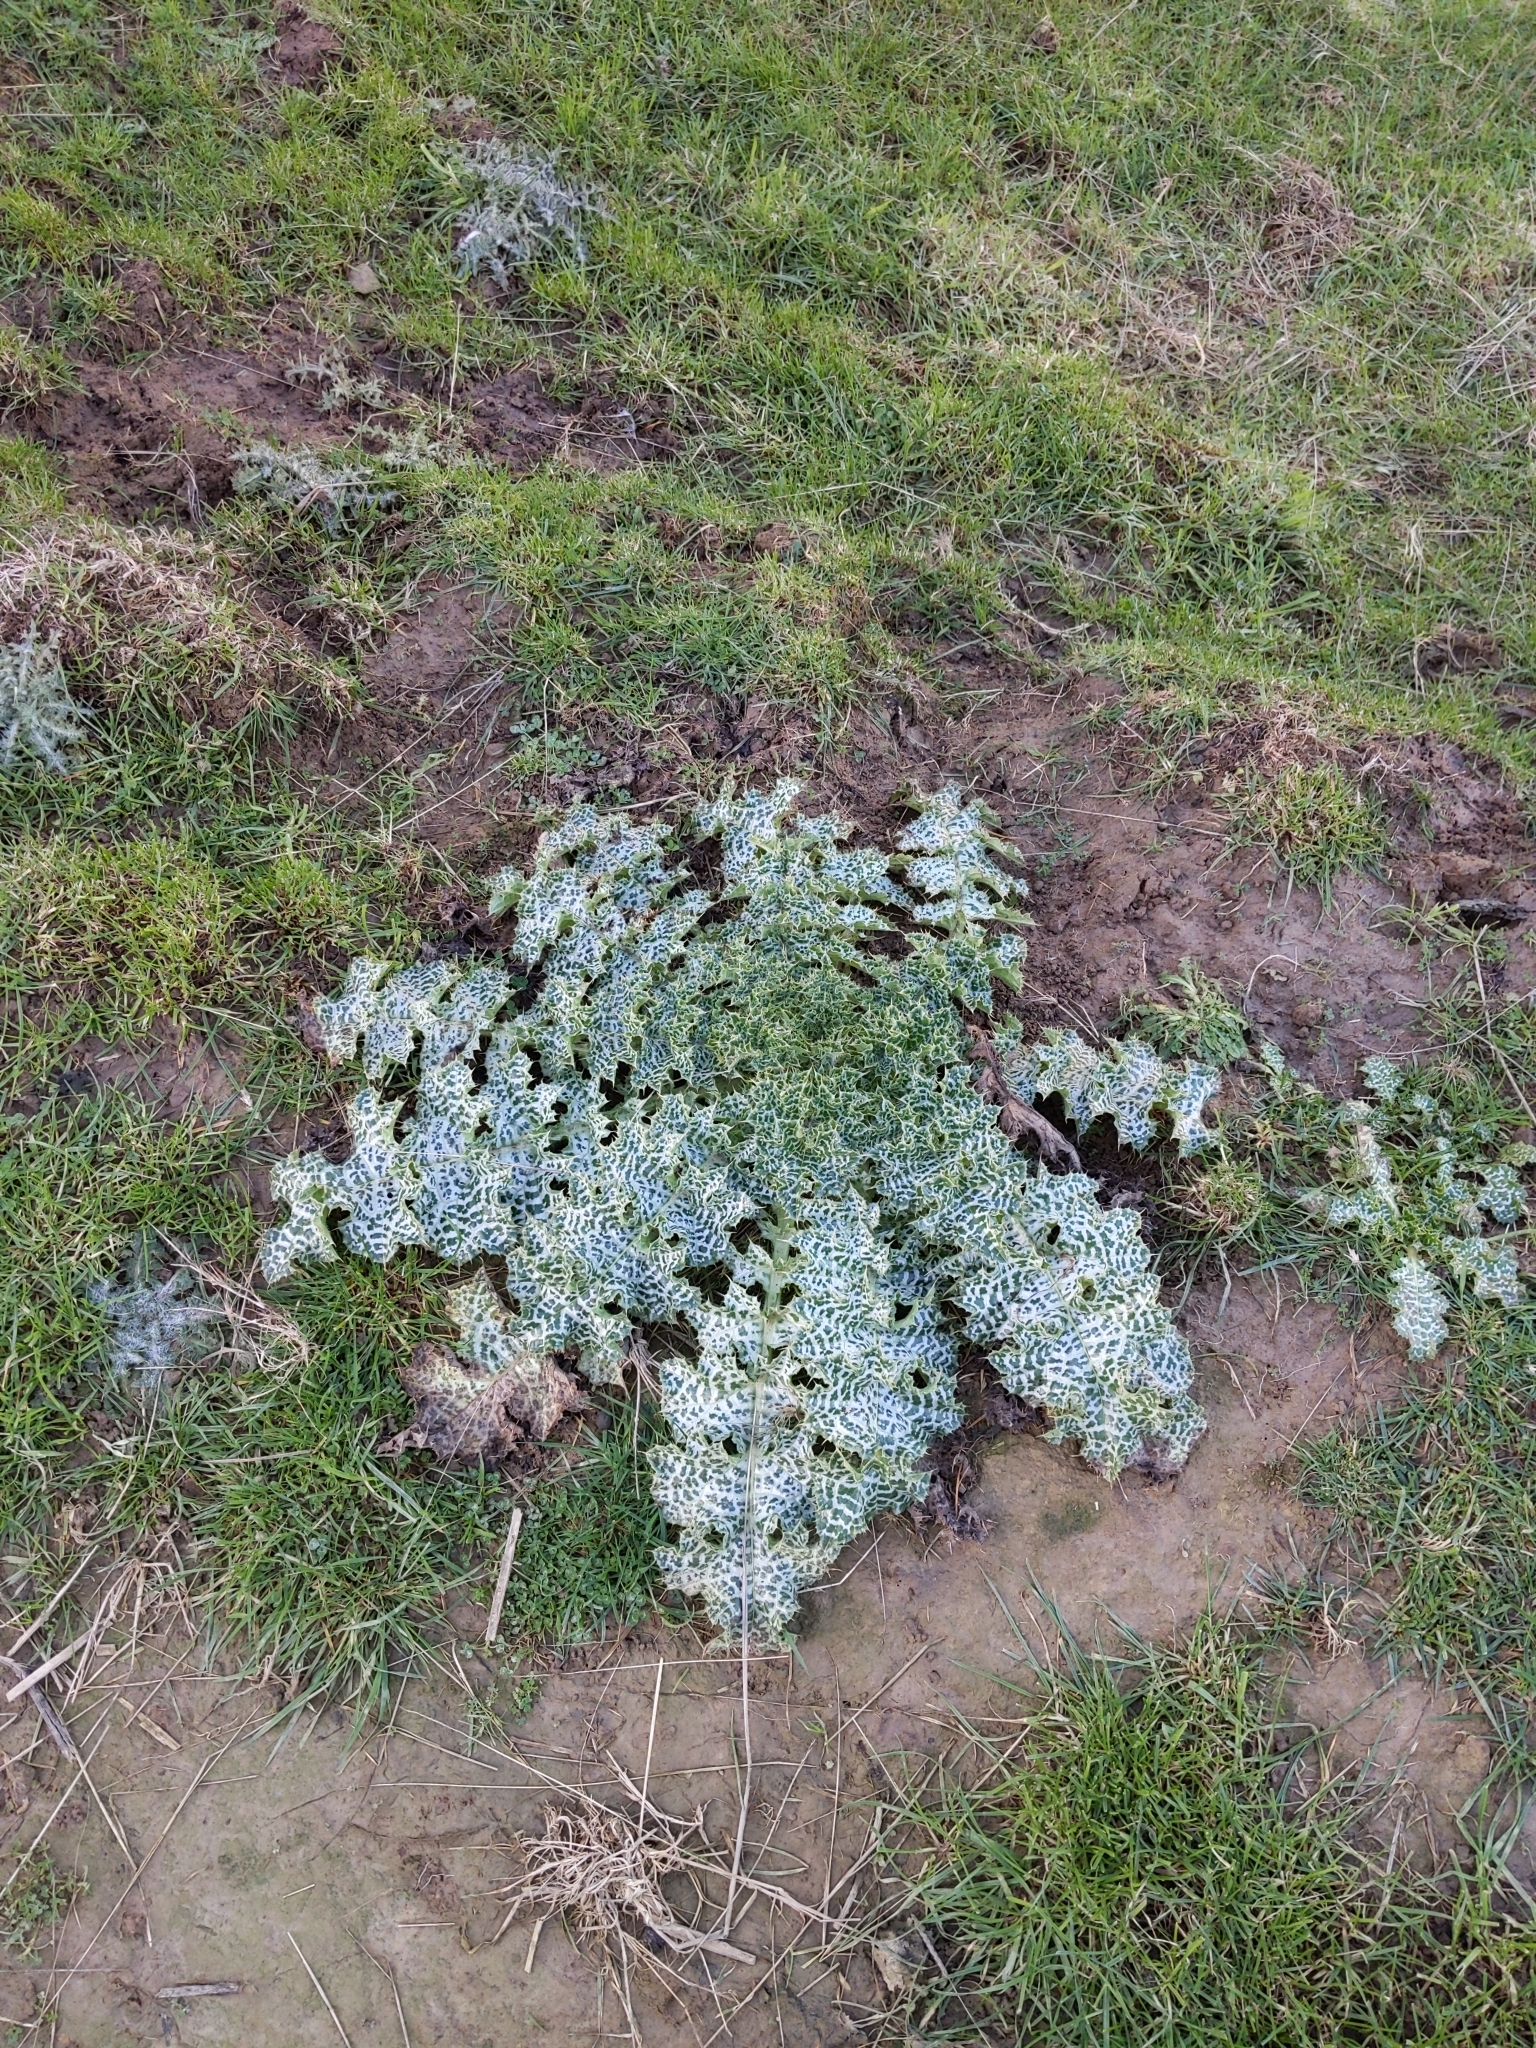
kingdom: Plantae
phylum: Tracheophyta
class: Magnoliopsida
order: Asterales
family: Asteraceae
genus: Silybum
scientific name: Silybum marianum
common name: Milk thistle
